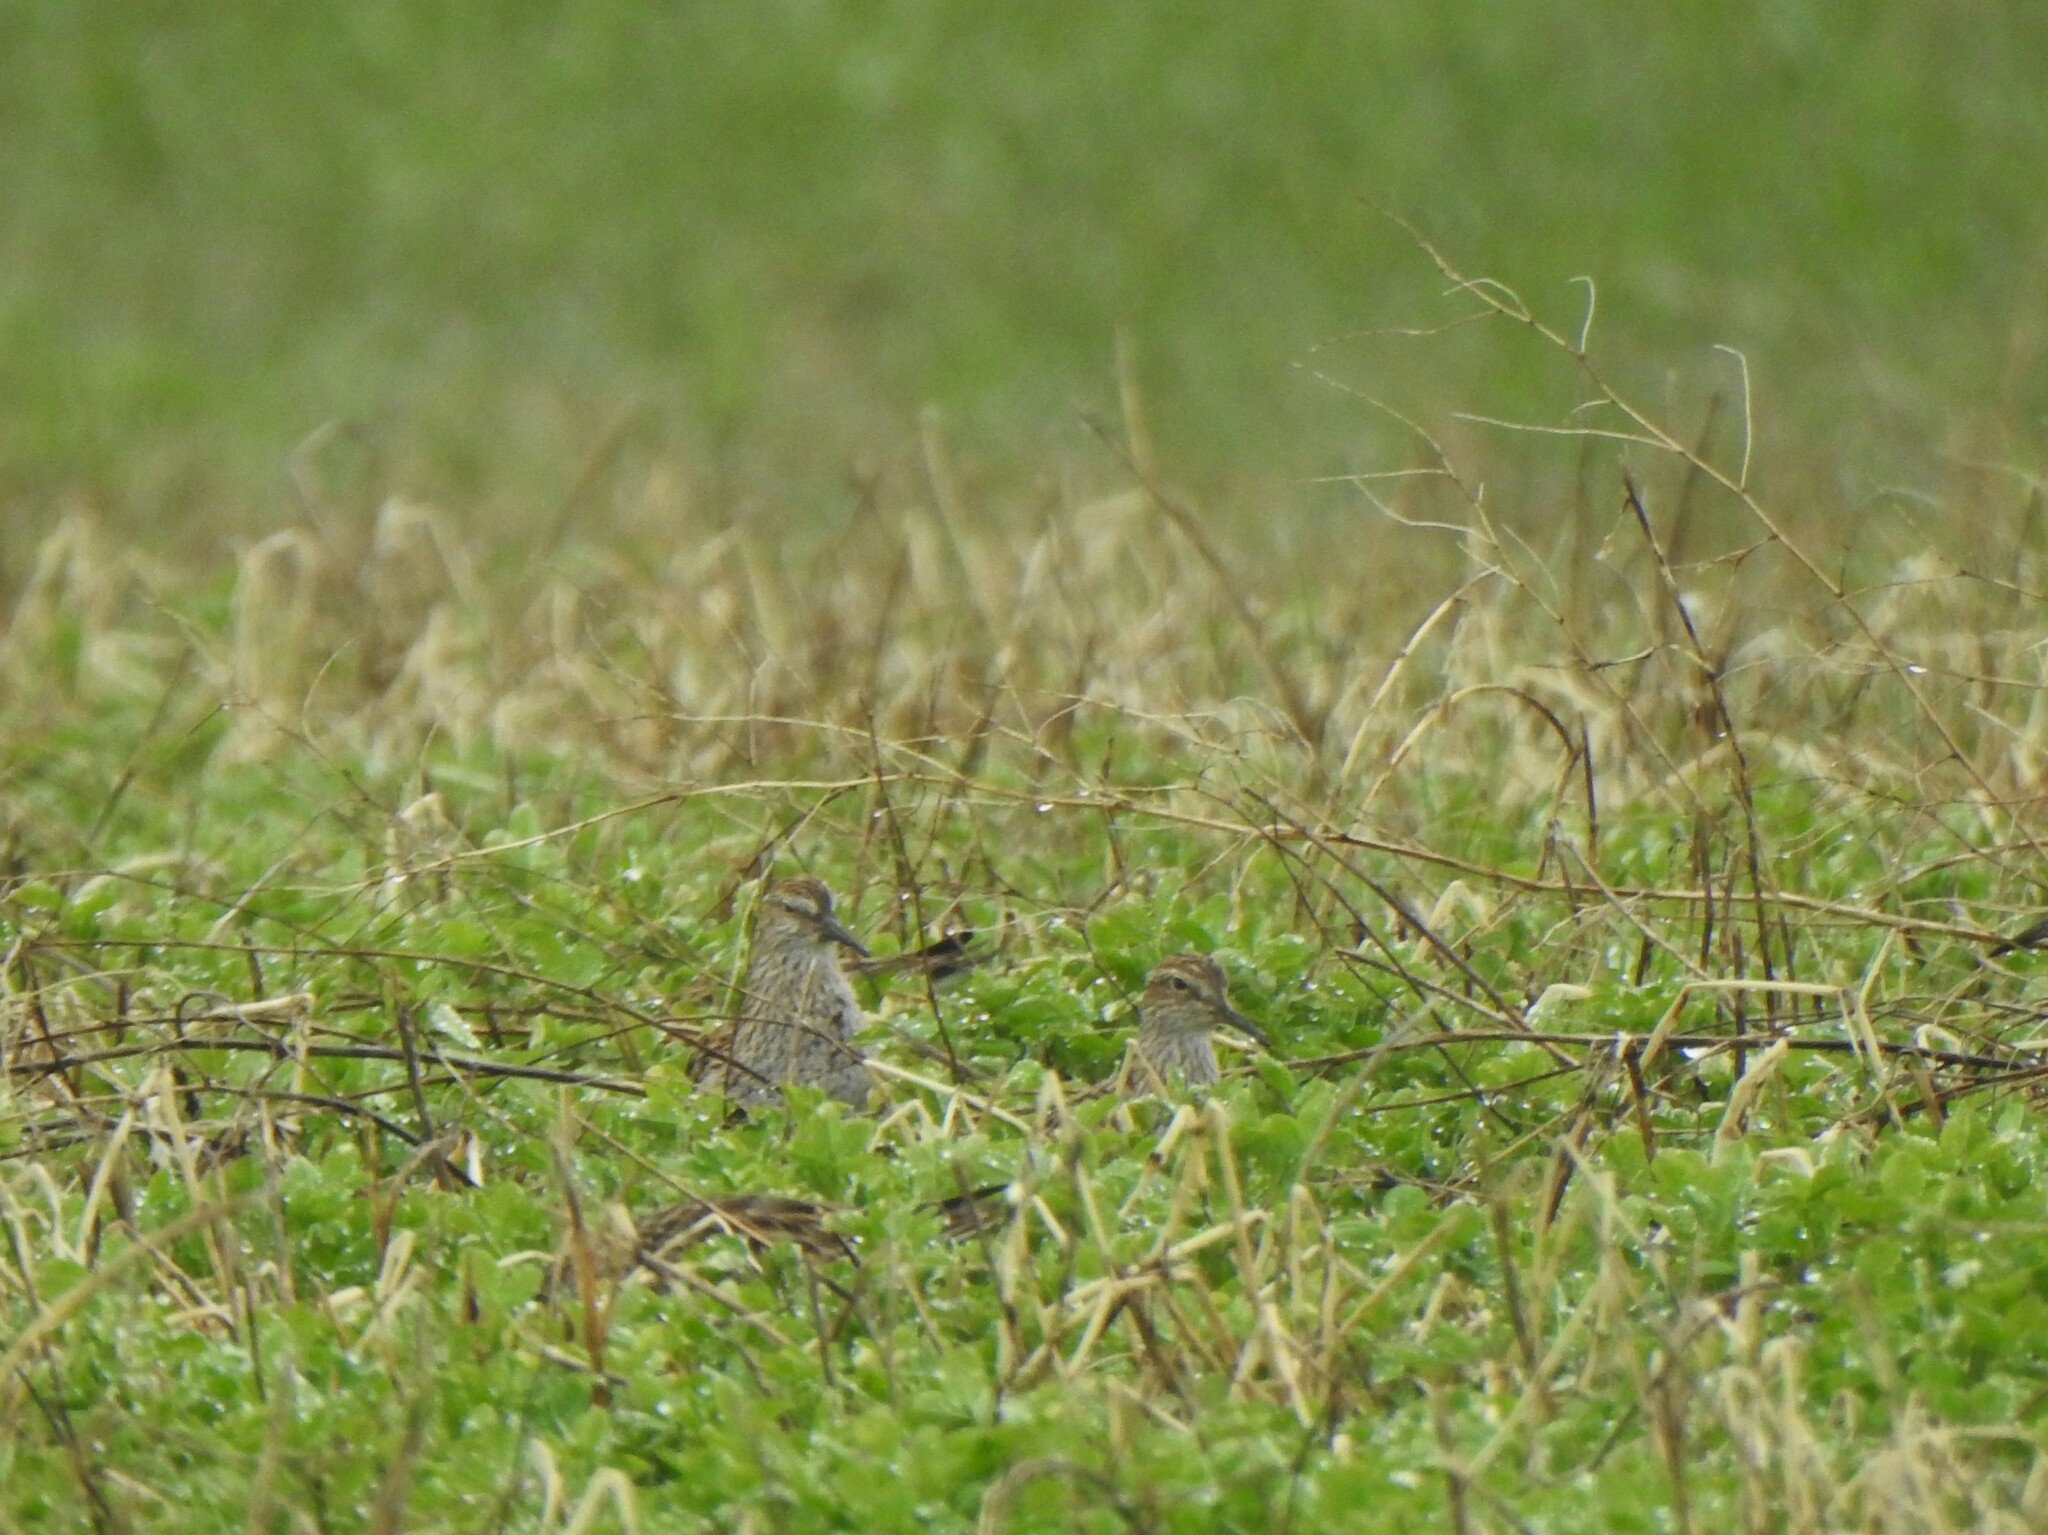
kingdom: Animalia
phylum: Chordata
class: Aves
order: Charadriiformes
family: Scolopacidae
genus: Calidris
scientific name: Calidris melanotos
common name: Pectoral sandpiper
